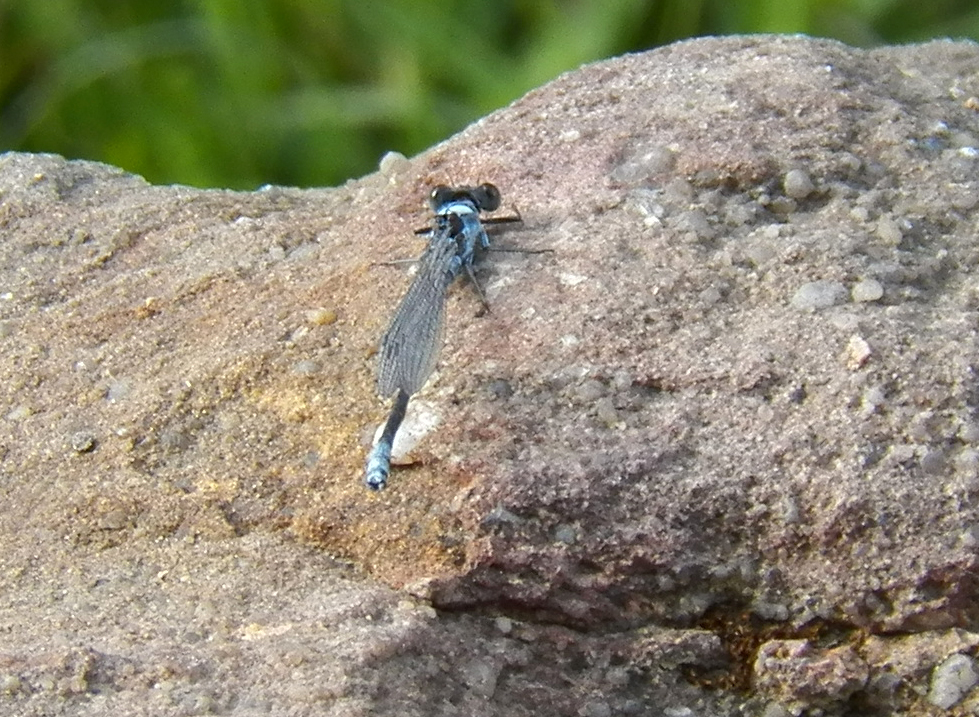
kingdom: Animalia
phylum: Arthropoda
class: Insecta
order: Odonata
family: Coenagrionidae
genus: Argia
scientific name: Argia moesta
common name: Powdered dancer
